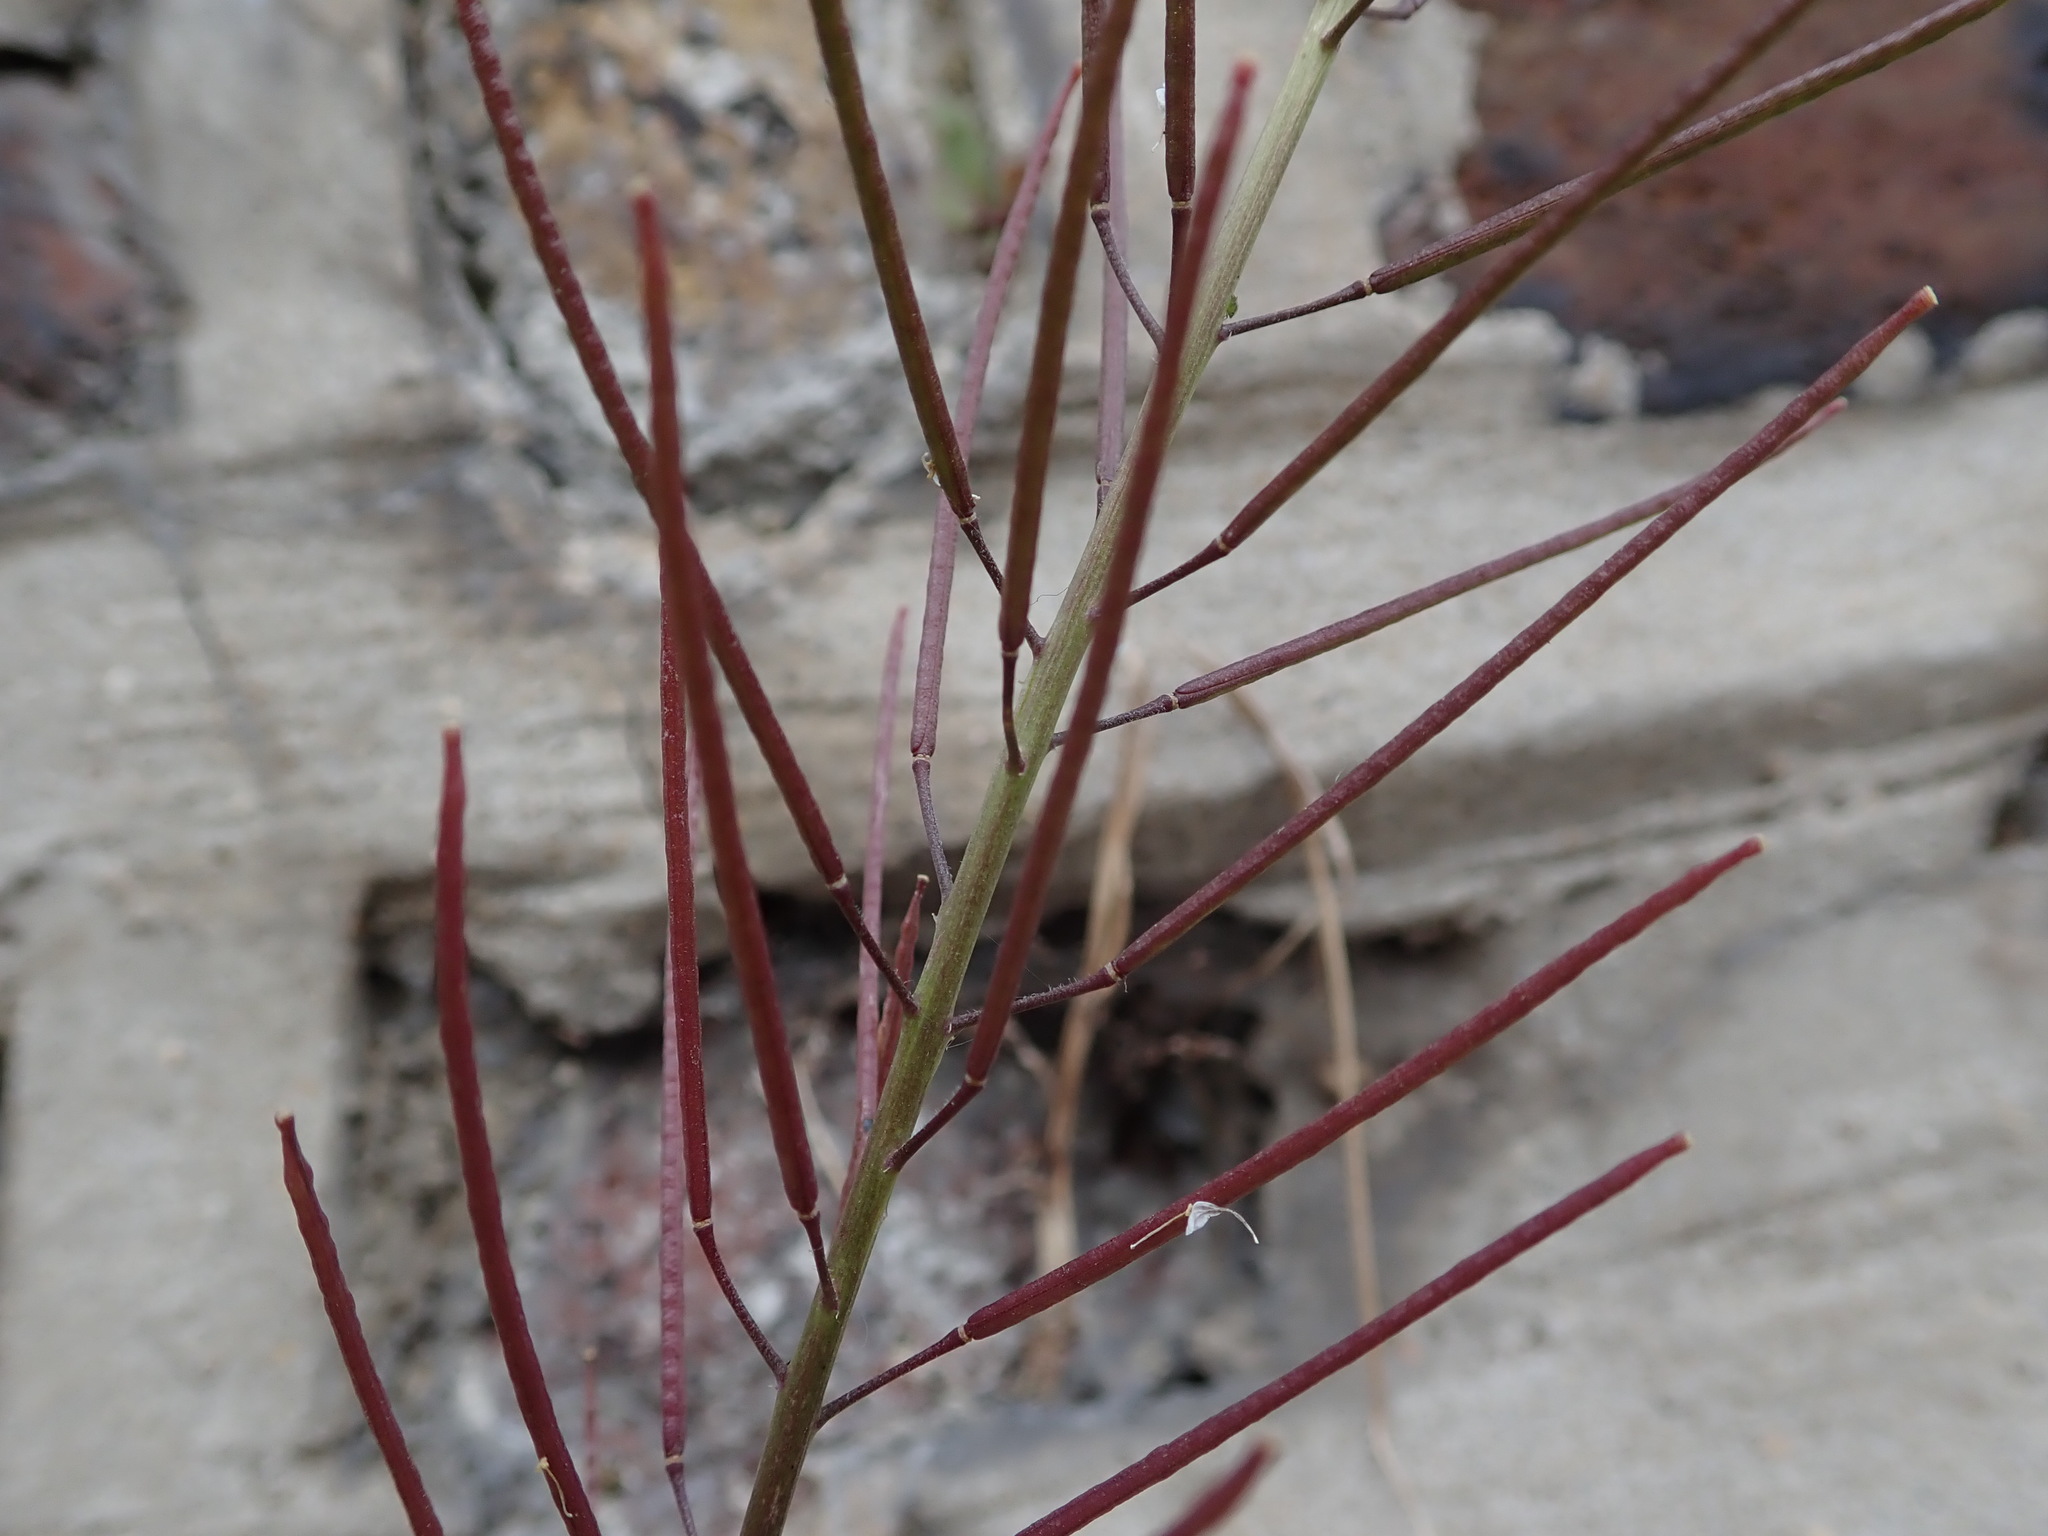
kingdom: Plantae
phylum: Tracheophyta
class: Magnoliopsida
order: Brassicales
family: Brassicaceae
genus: Sisymbrium
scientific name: Sisymbrium irio
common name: London rocket
